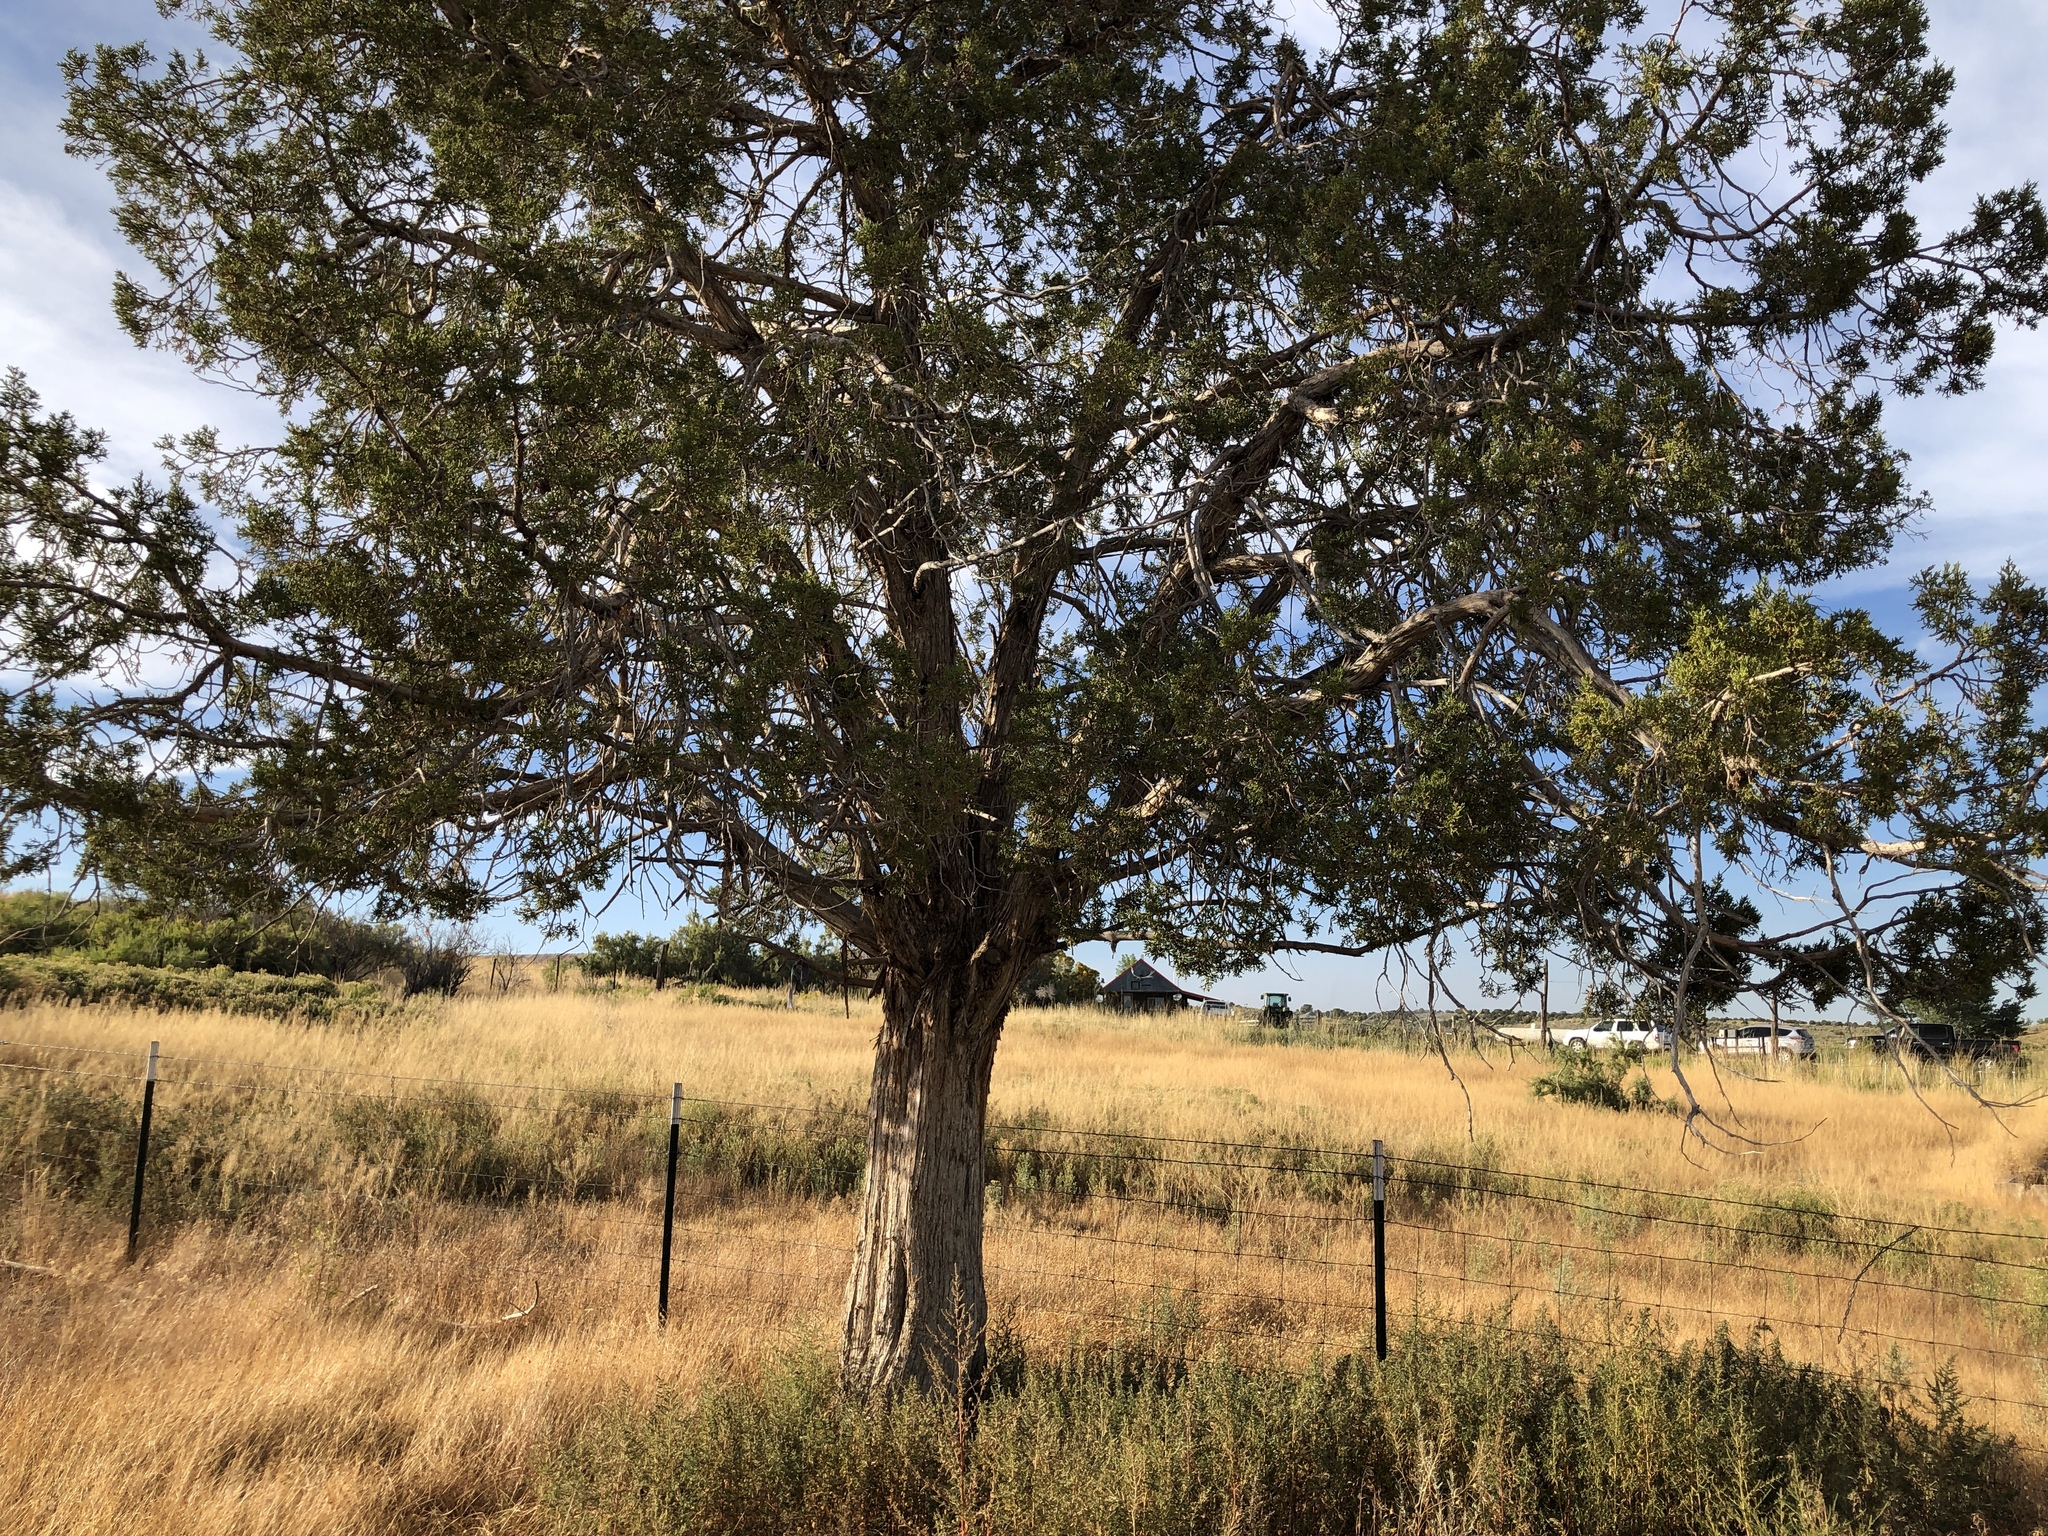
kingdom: Plantae
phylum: Tracheophyta
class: Pinopsida
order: Pinales
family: Cupressaceae
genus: Juniperus
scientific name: Juniperus osteosperma
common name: Utah juniper
